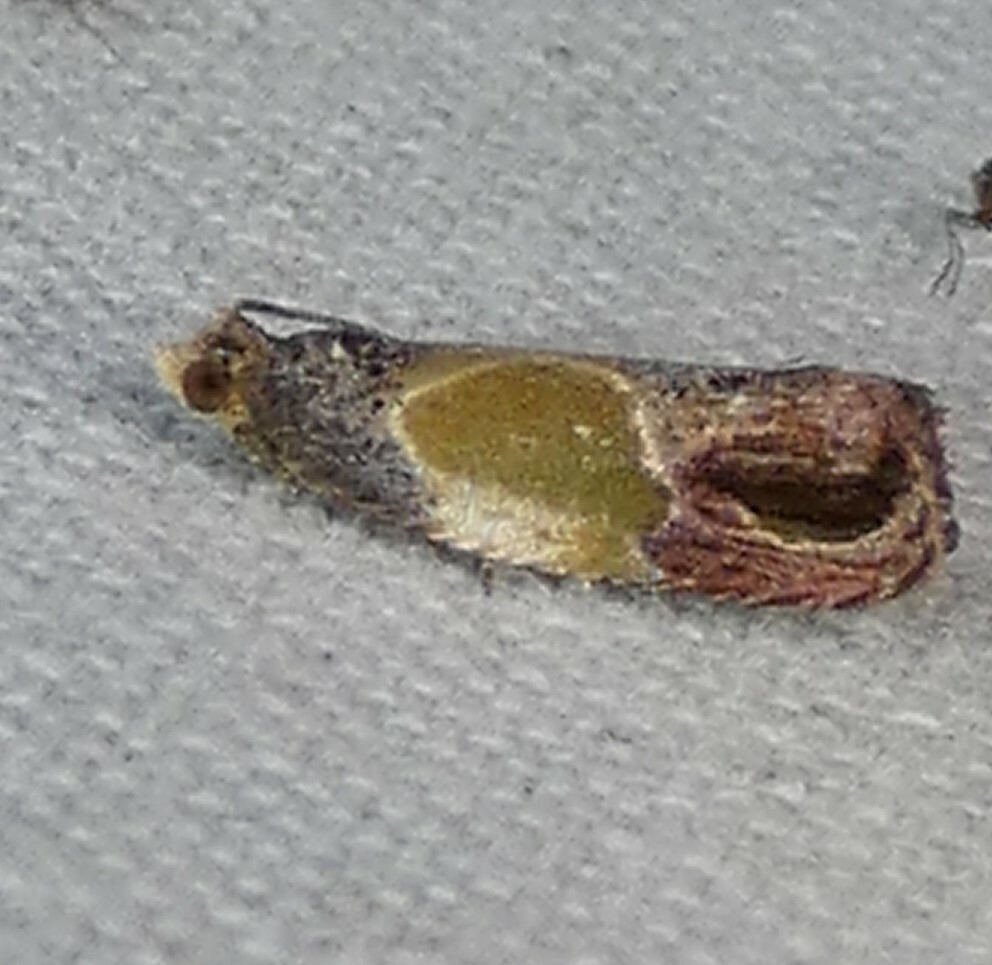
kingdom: Animalia
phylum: Arthropoda
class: Insecta
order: Lepidoptera
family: Tortricidae
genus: Eumarozia
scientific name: Eumarozia malachitana
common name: Sculptured moth
